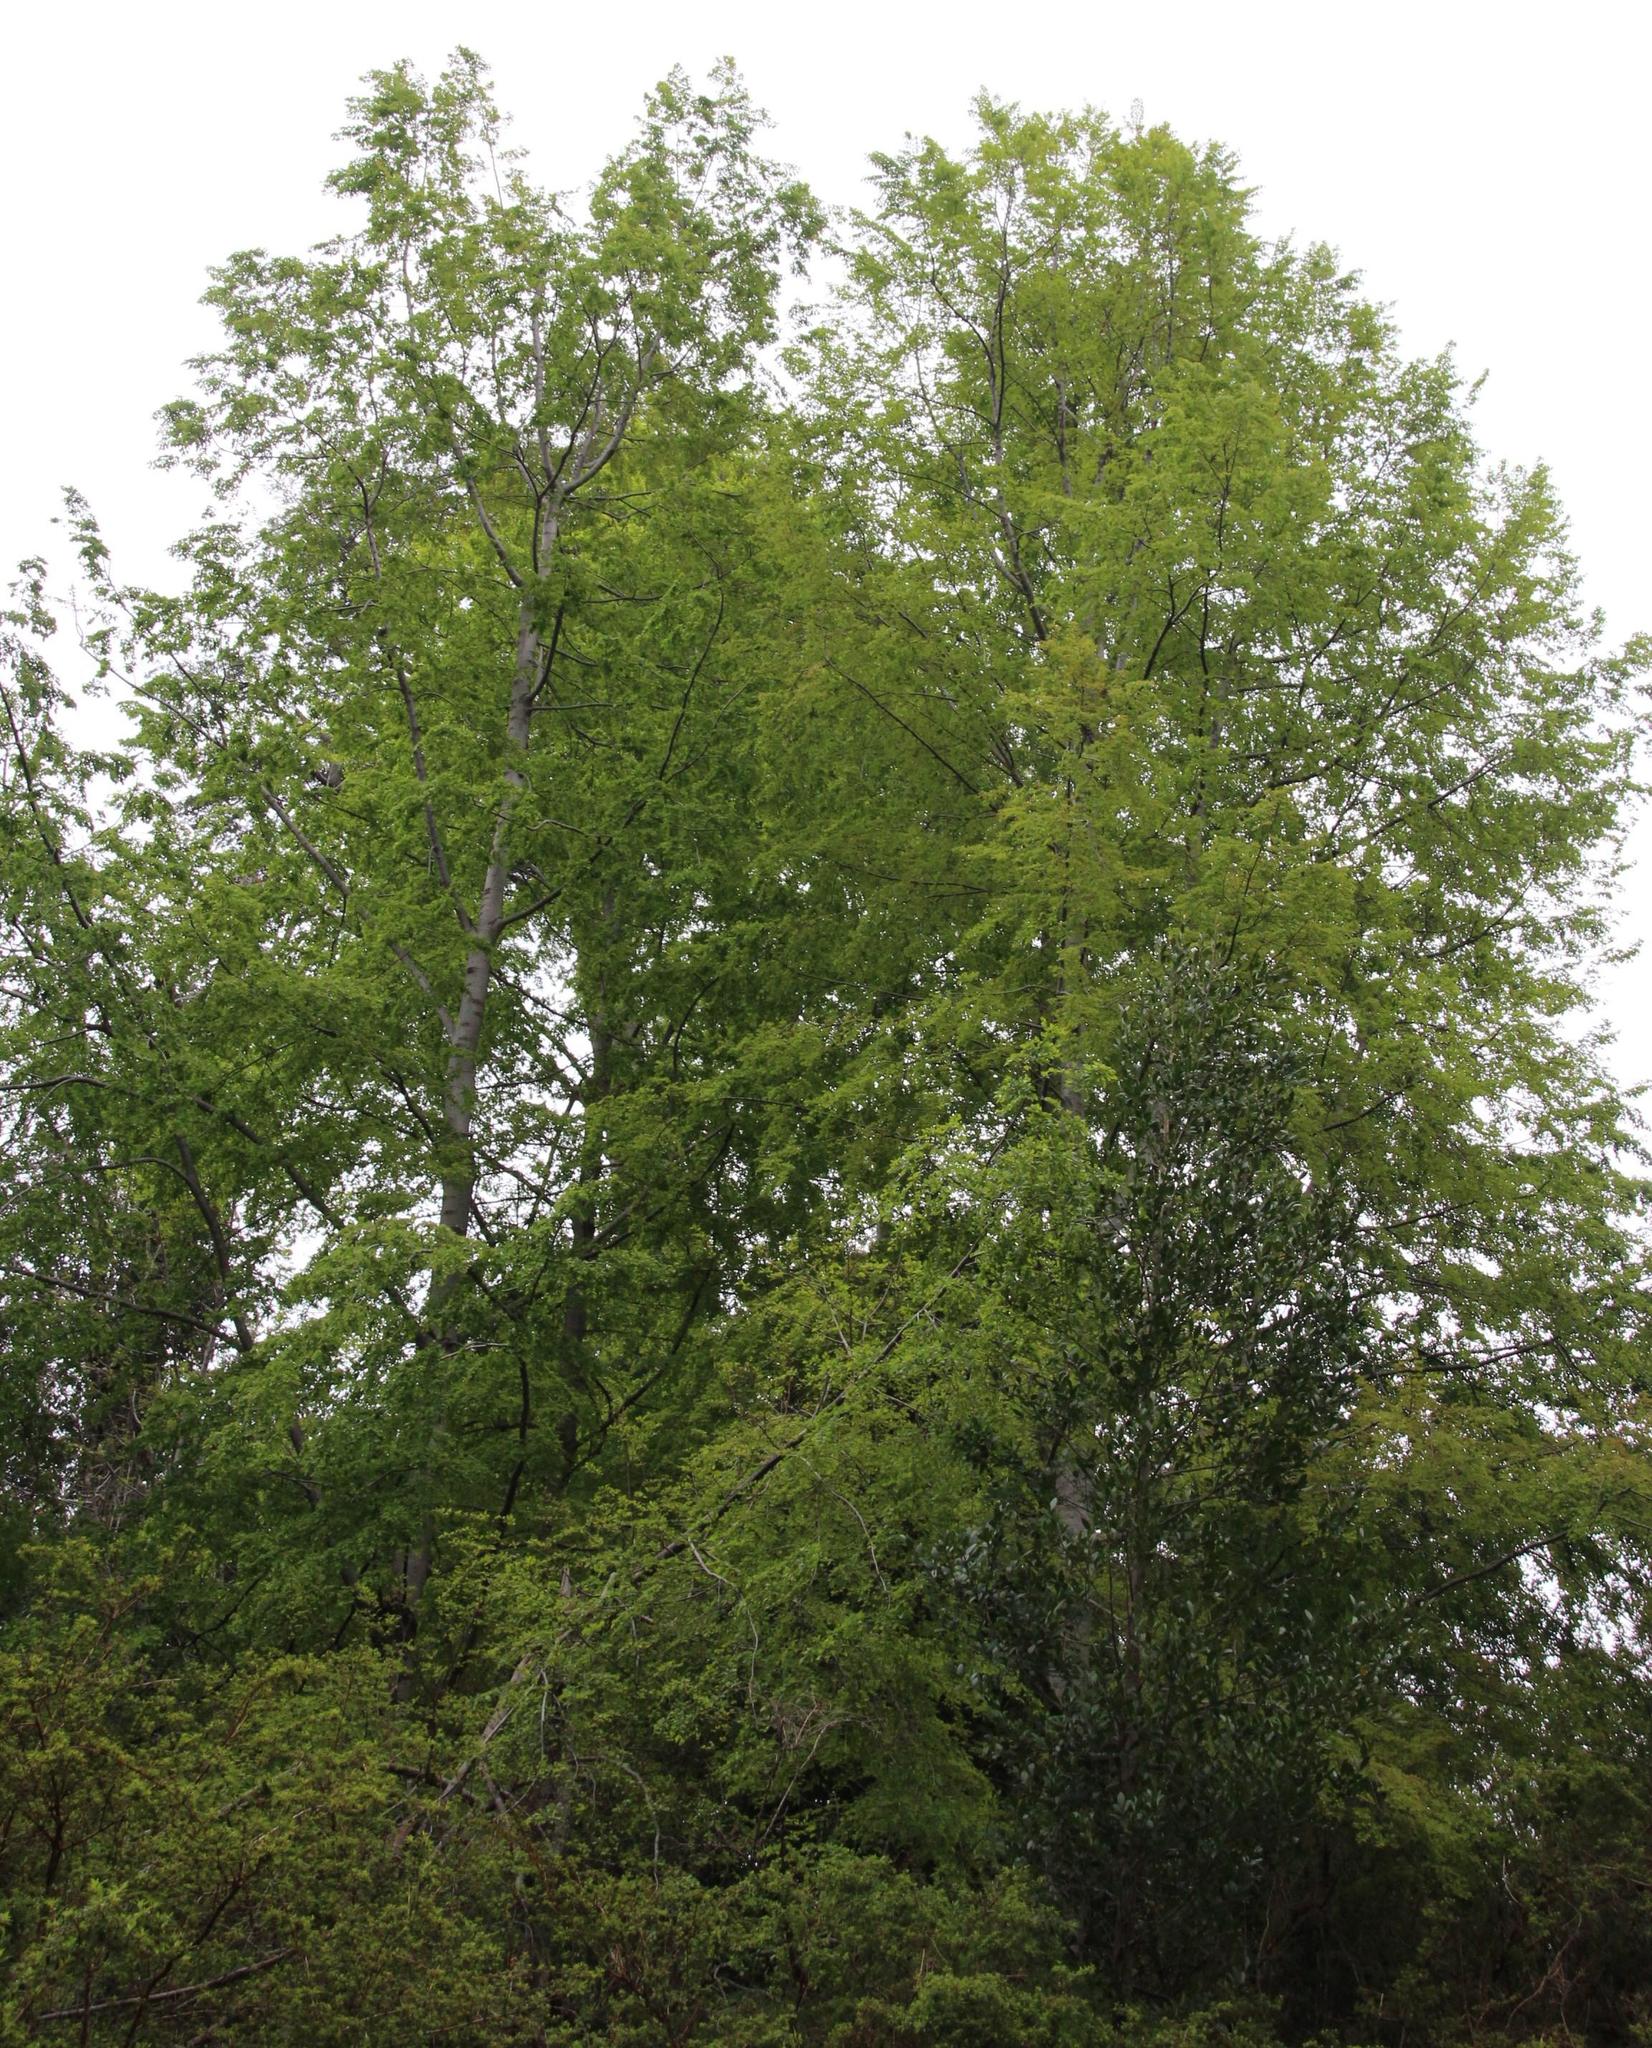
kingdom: Plantae
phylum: Tracheophyta
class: Magnoliopsida
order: Fagales
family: Nothofagaceae
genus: Nothofagus
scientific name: Nothofagus obliqua
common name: Roble beech
